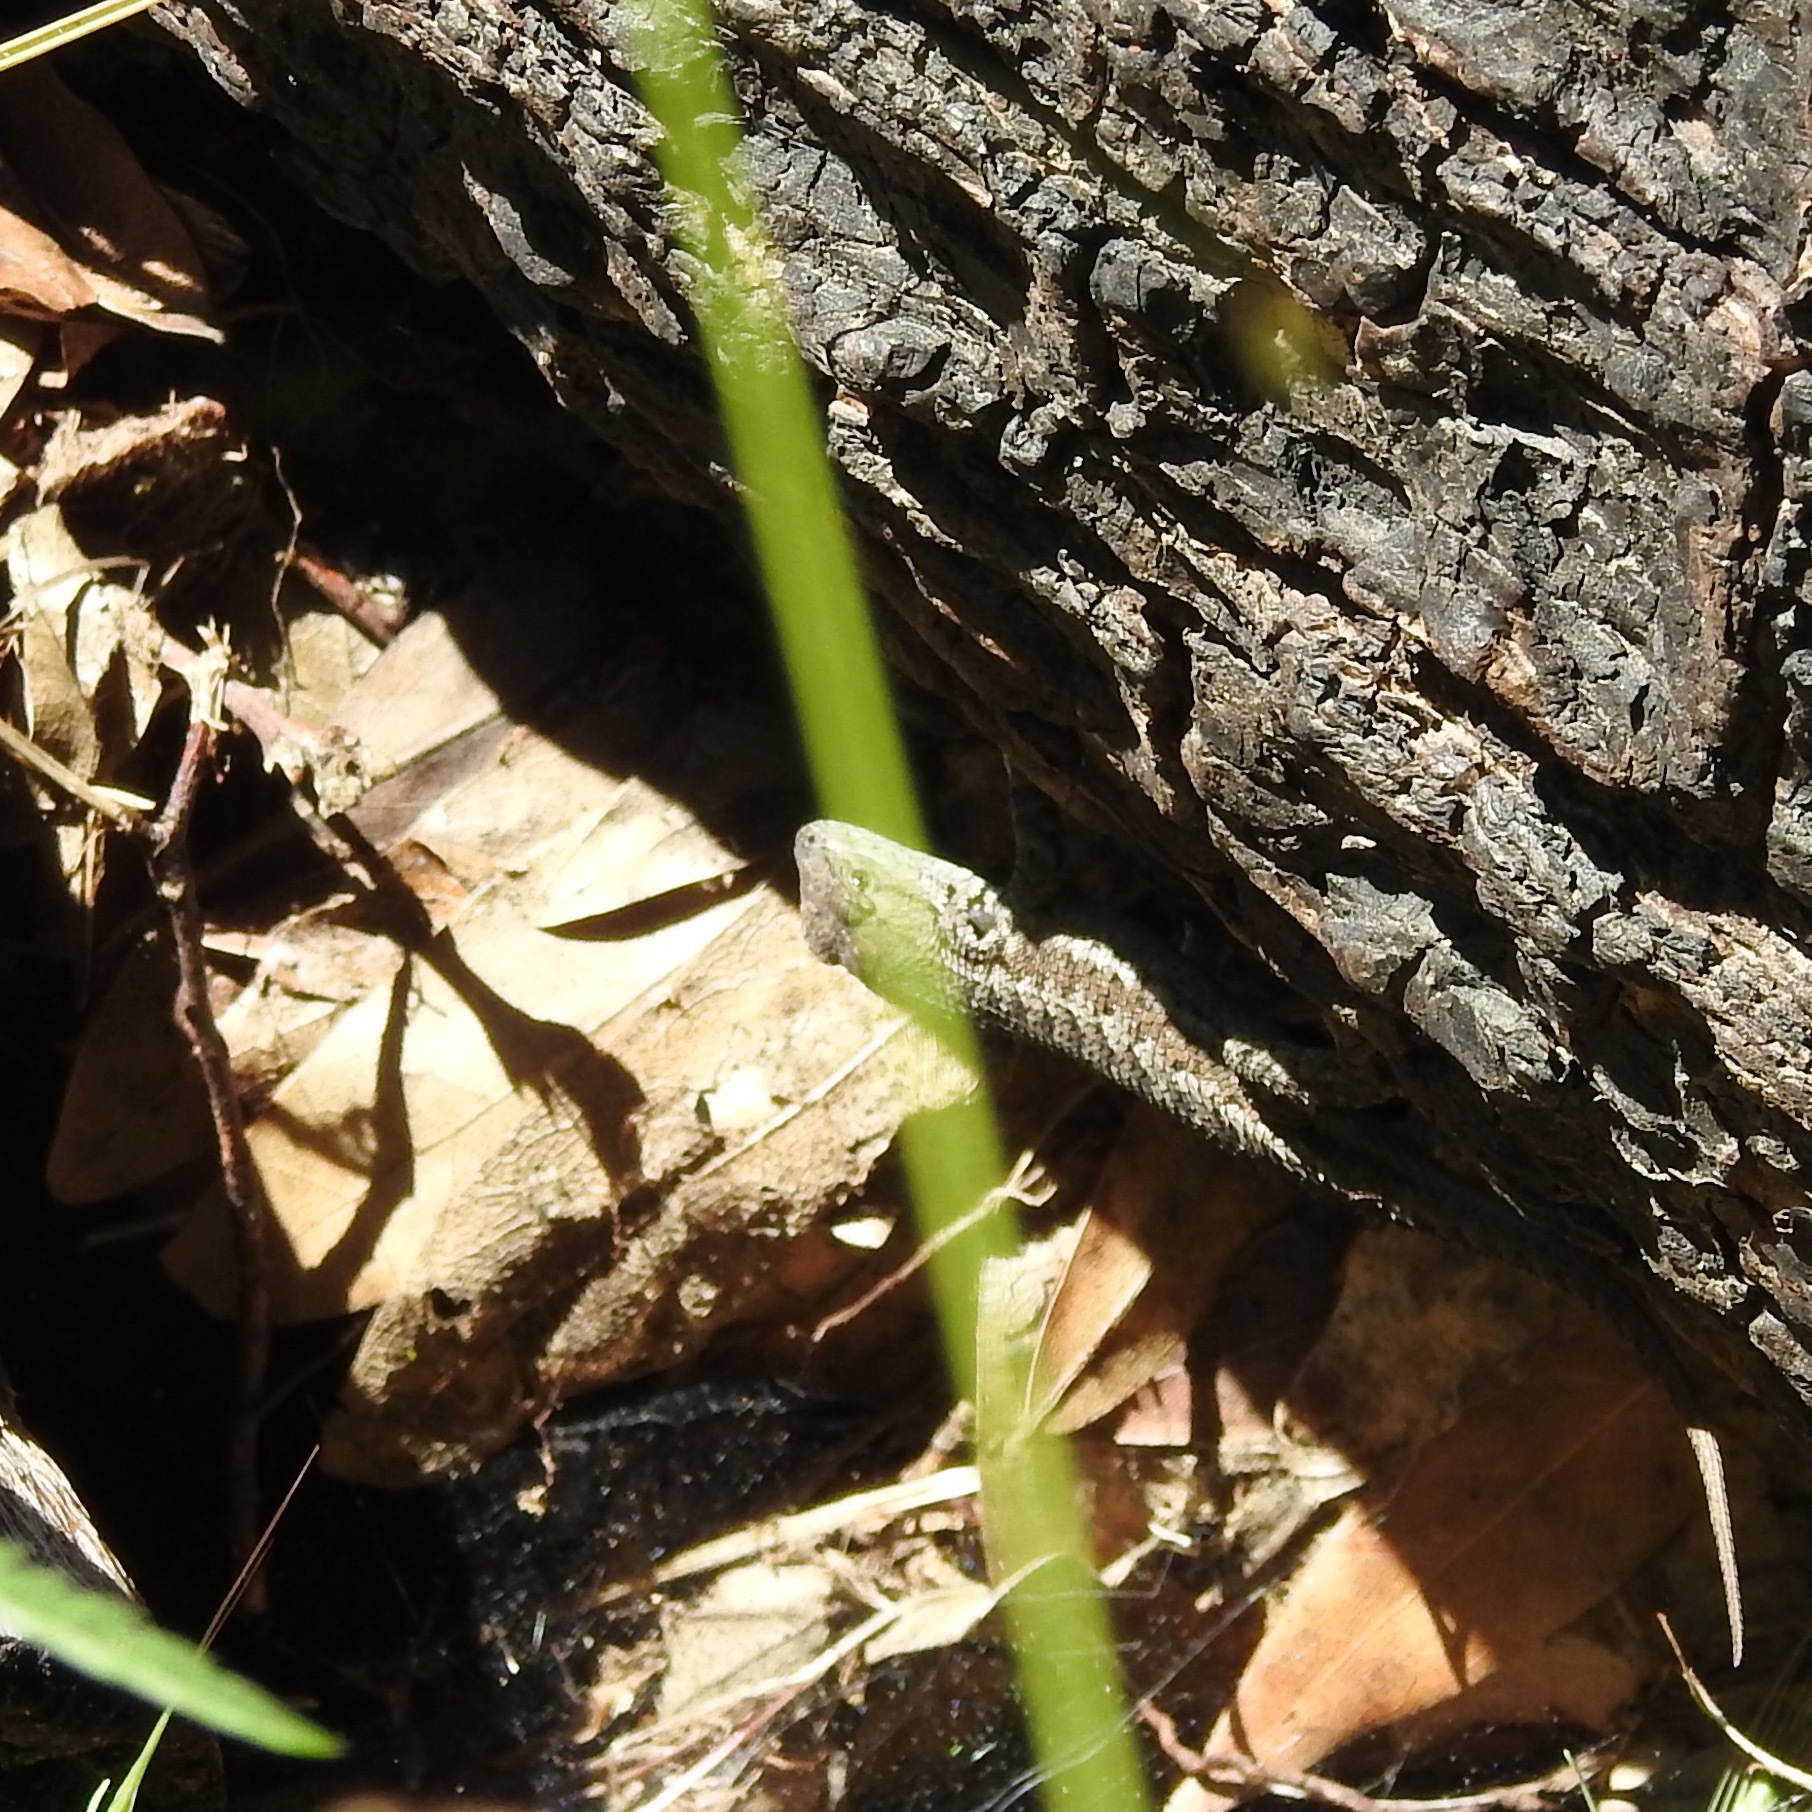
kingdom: Animalia
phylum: Chordata
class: Squamata
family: Phrynosomatidae
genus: Sceloporus
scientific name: Sceloporus occidentalis
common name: Western fence lizard
